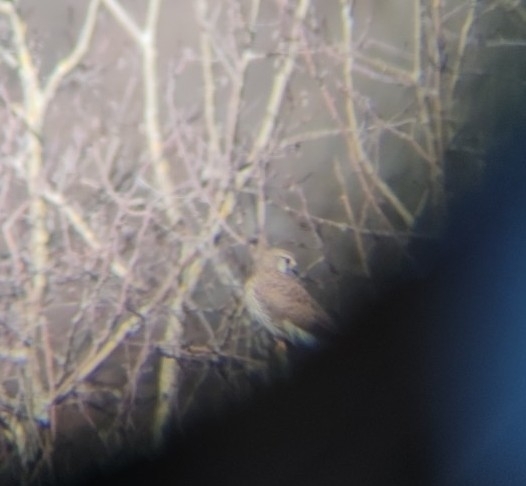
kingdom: Animalia
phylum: Chordata
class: Aves
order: Falconiformes
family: Falconidae
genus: Falco
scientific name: Falco tinnunculus
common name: Common kestrel
